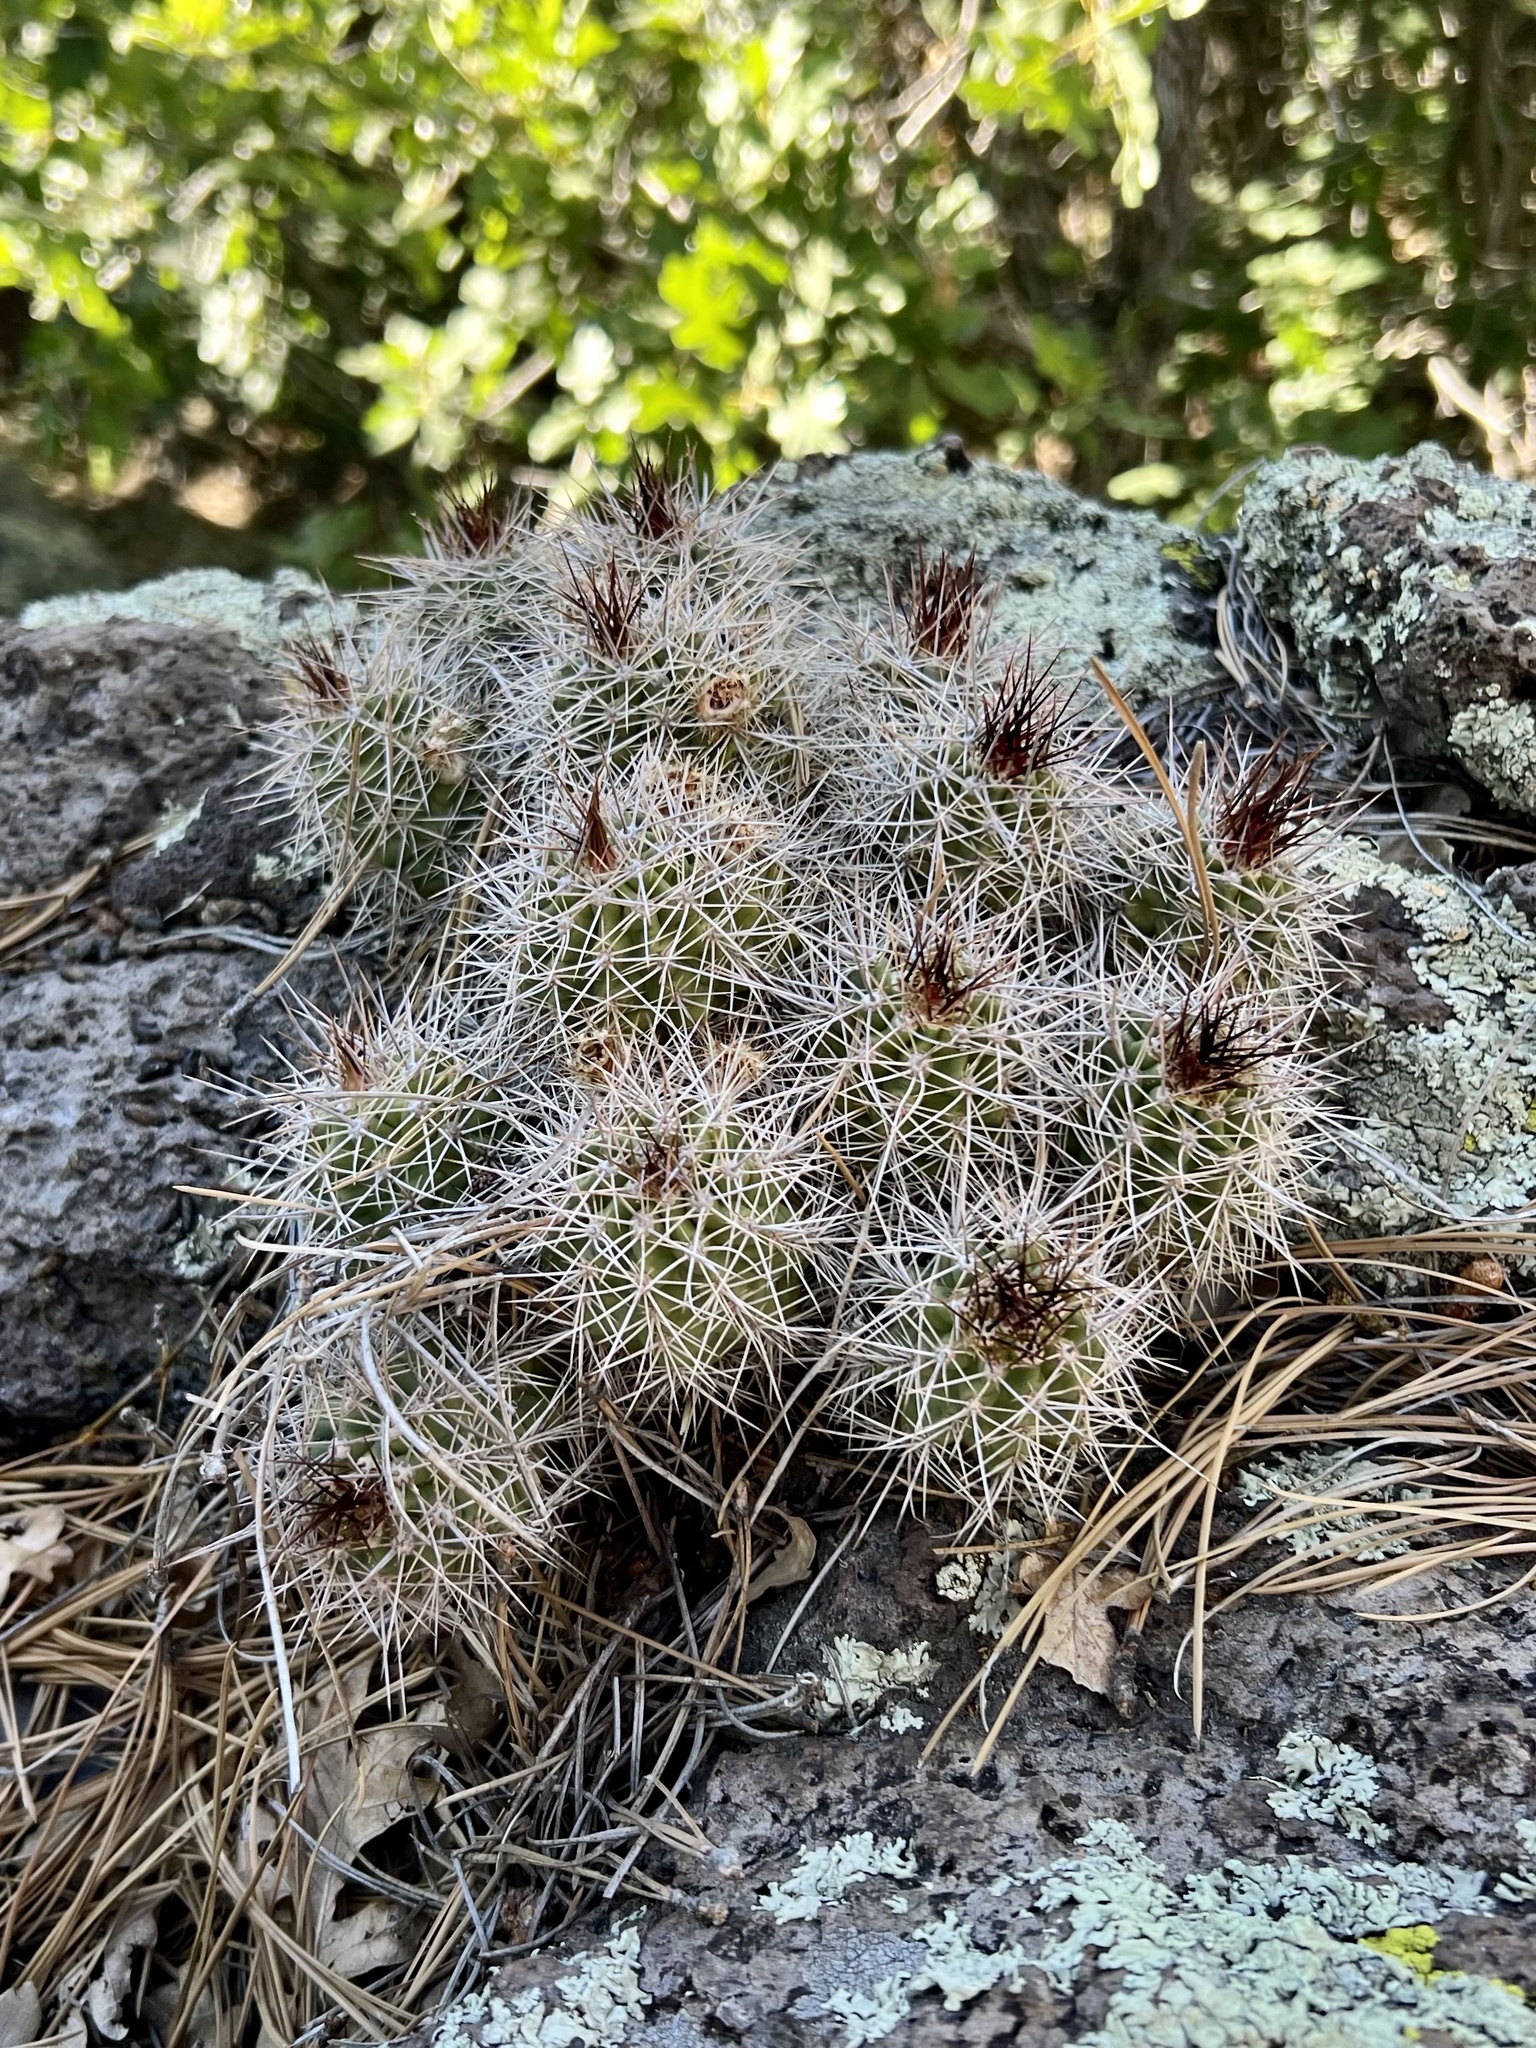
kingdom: Plantae
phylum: Tracheophyta
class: Magnoliopsida
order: Caryophyllales
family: Cactaceae
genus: Echinocereus
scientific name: Echinocereus bakeri
